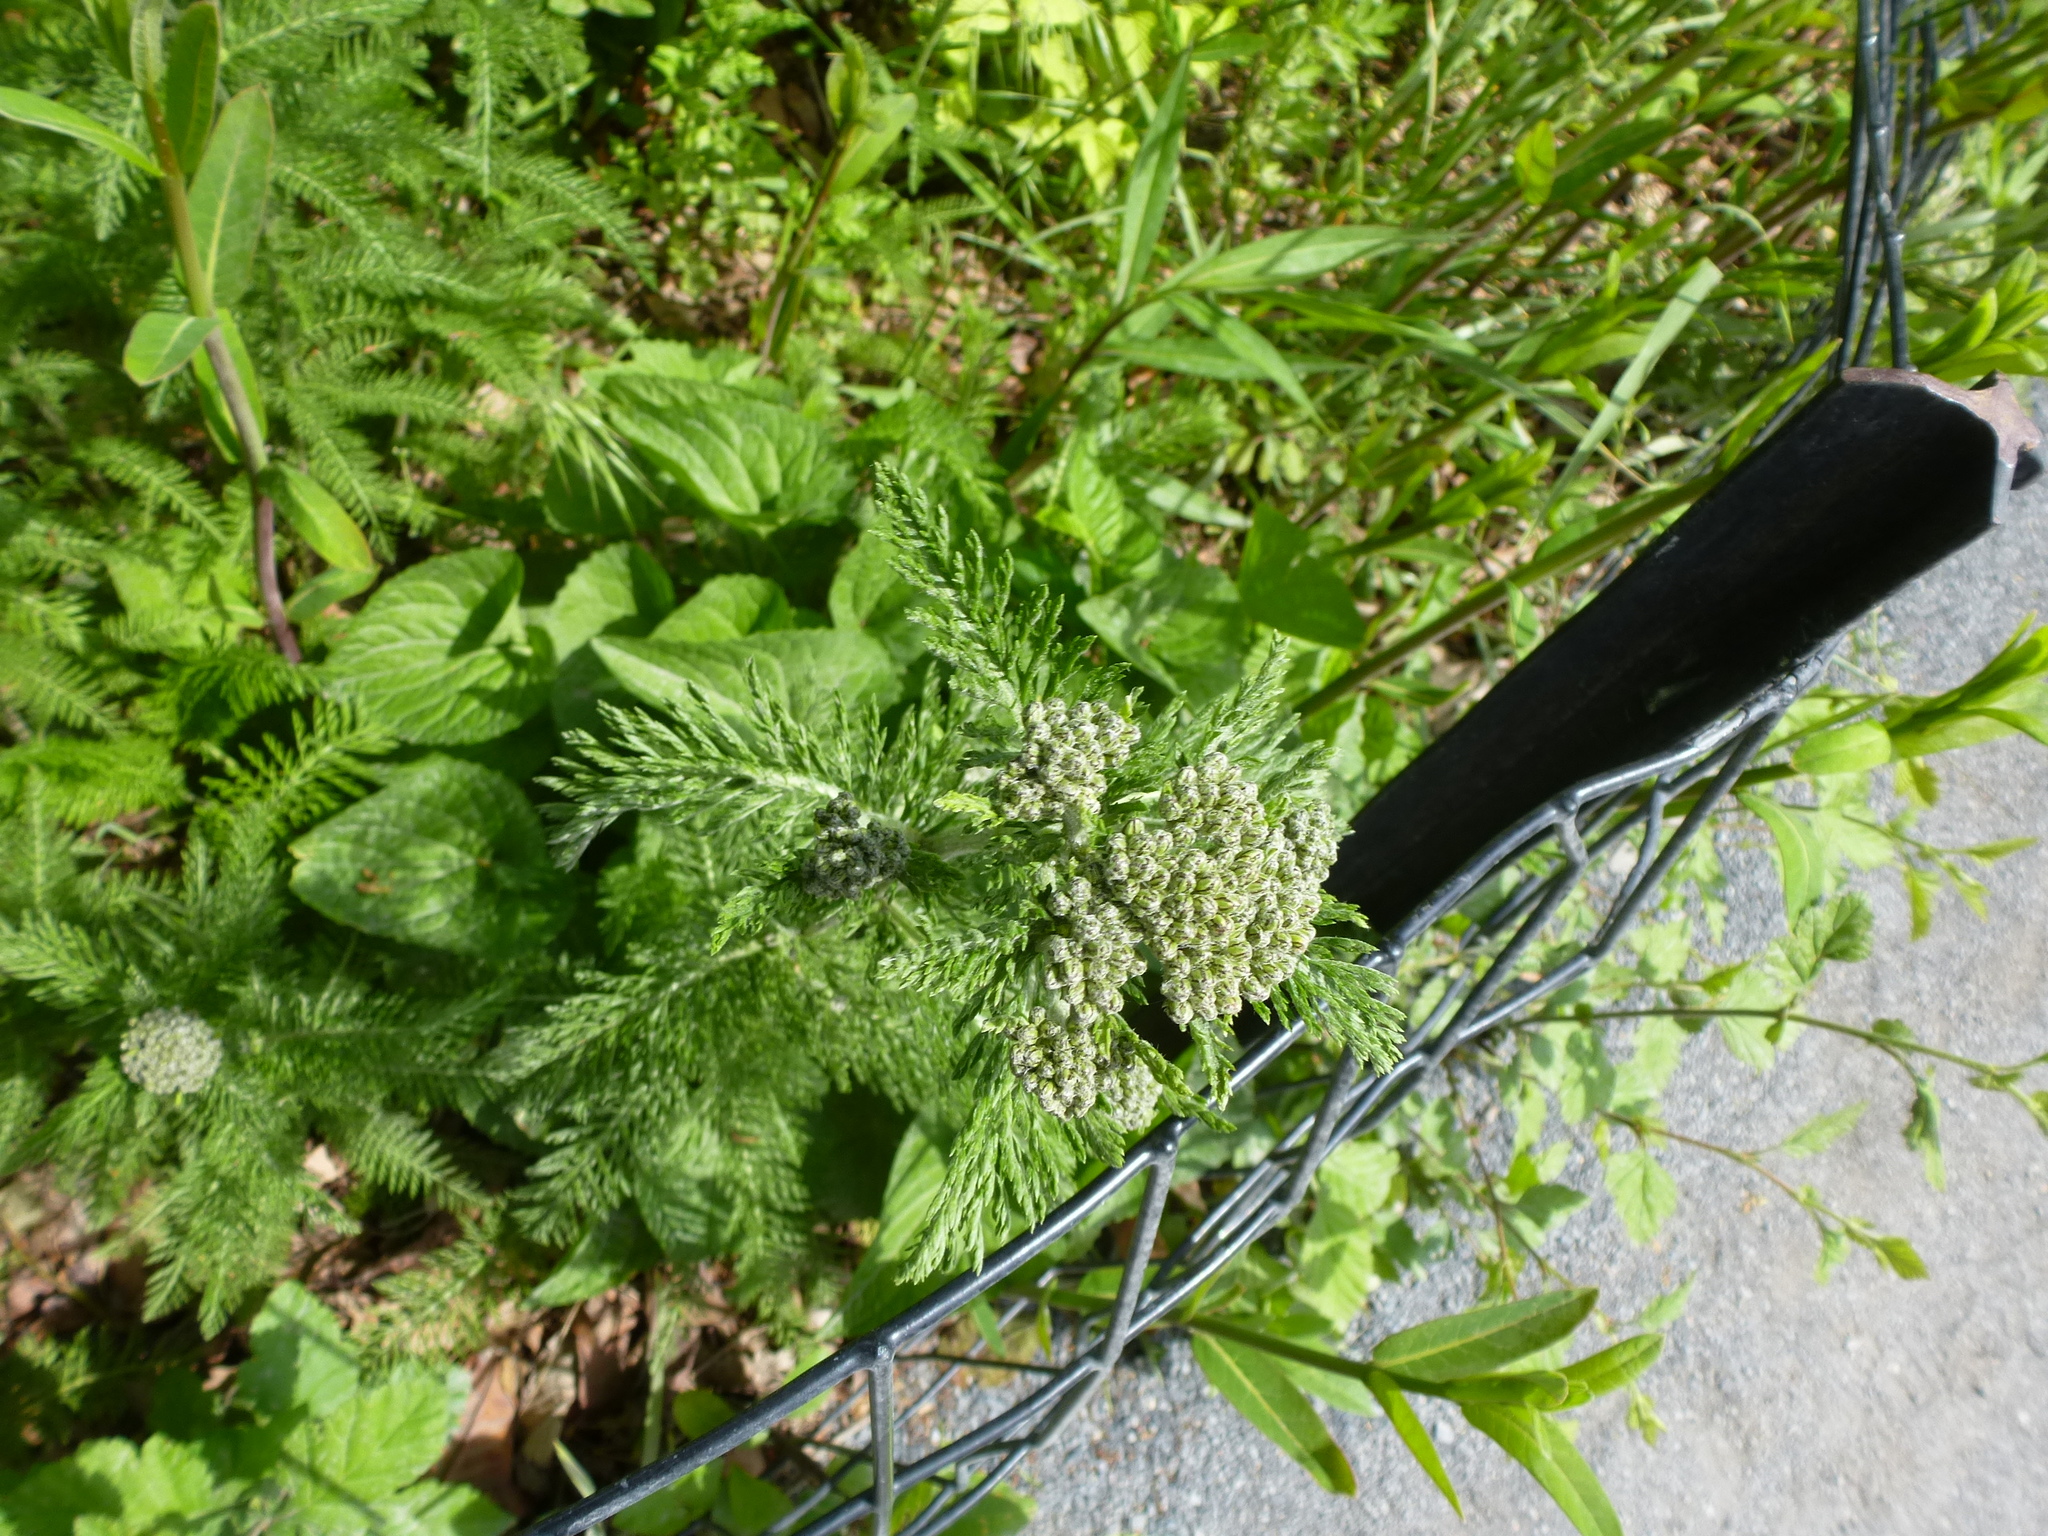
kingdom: Plantae
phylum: Tracheophyta
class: Magnoliopsida
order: Asterales
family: Asteraceae
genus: Achillea
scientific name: Achillea millefolium
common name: Yarrow
